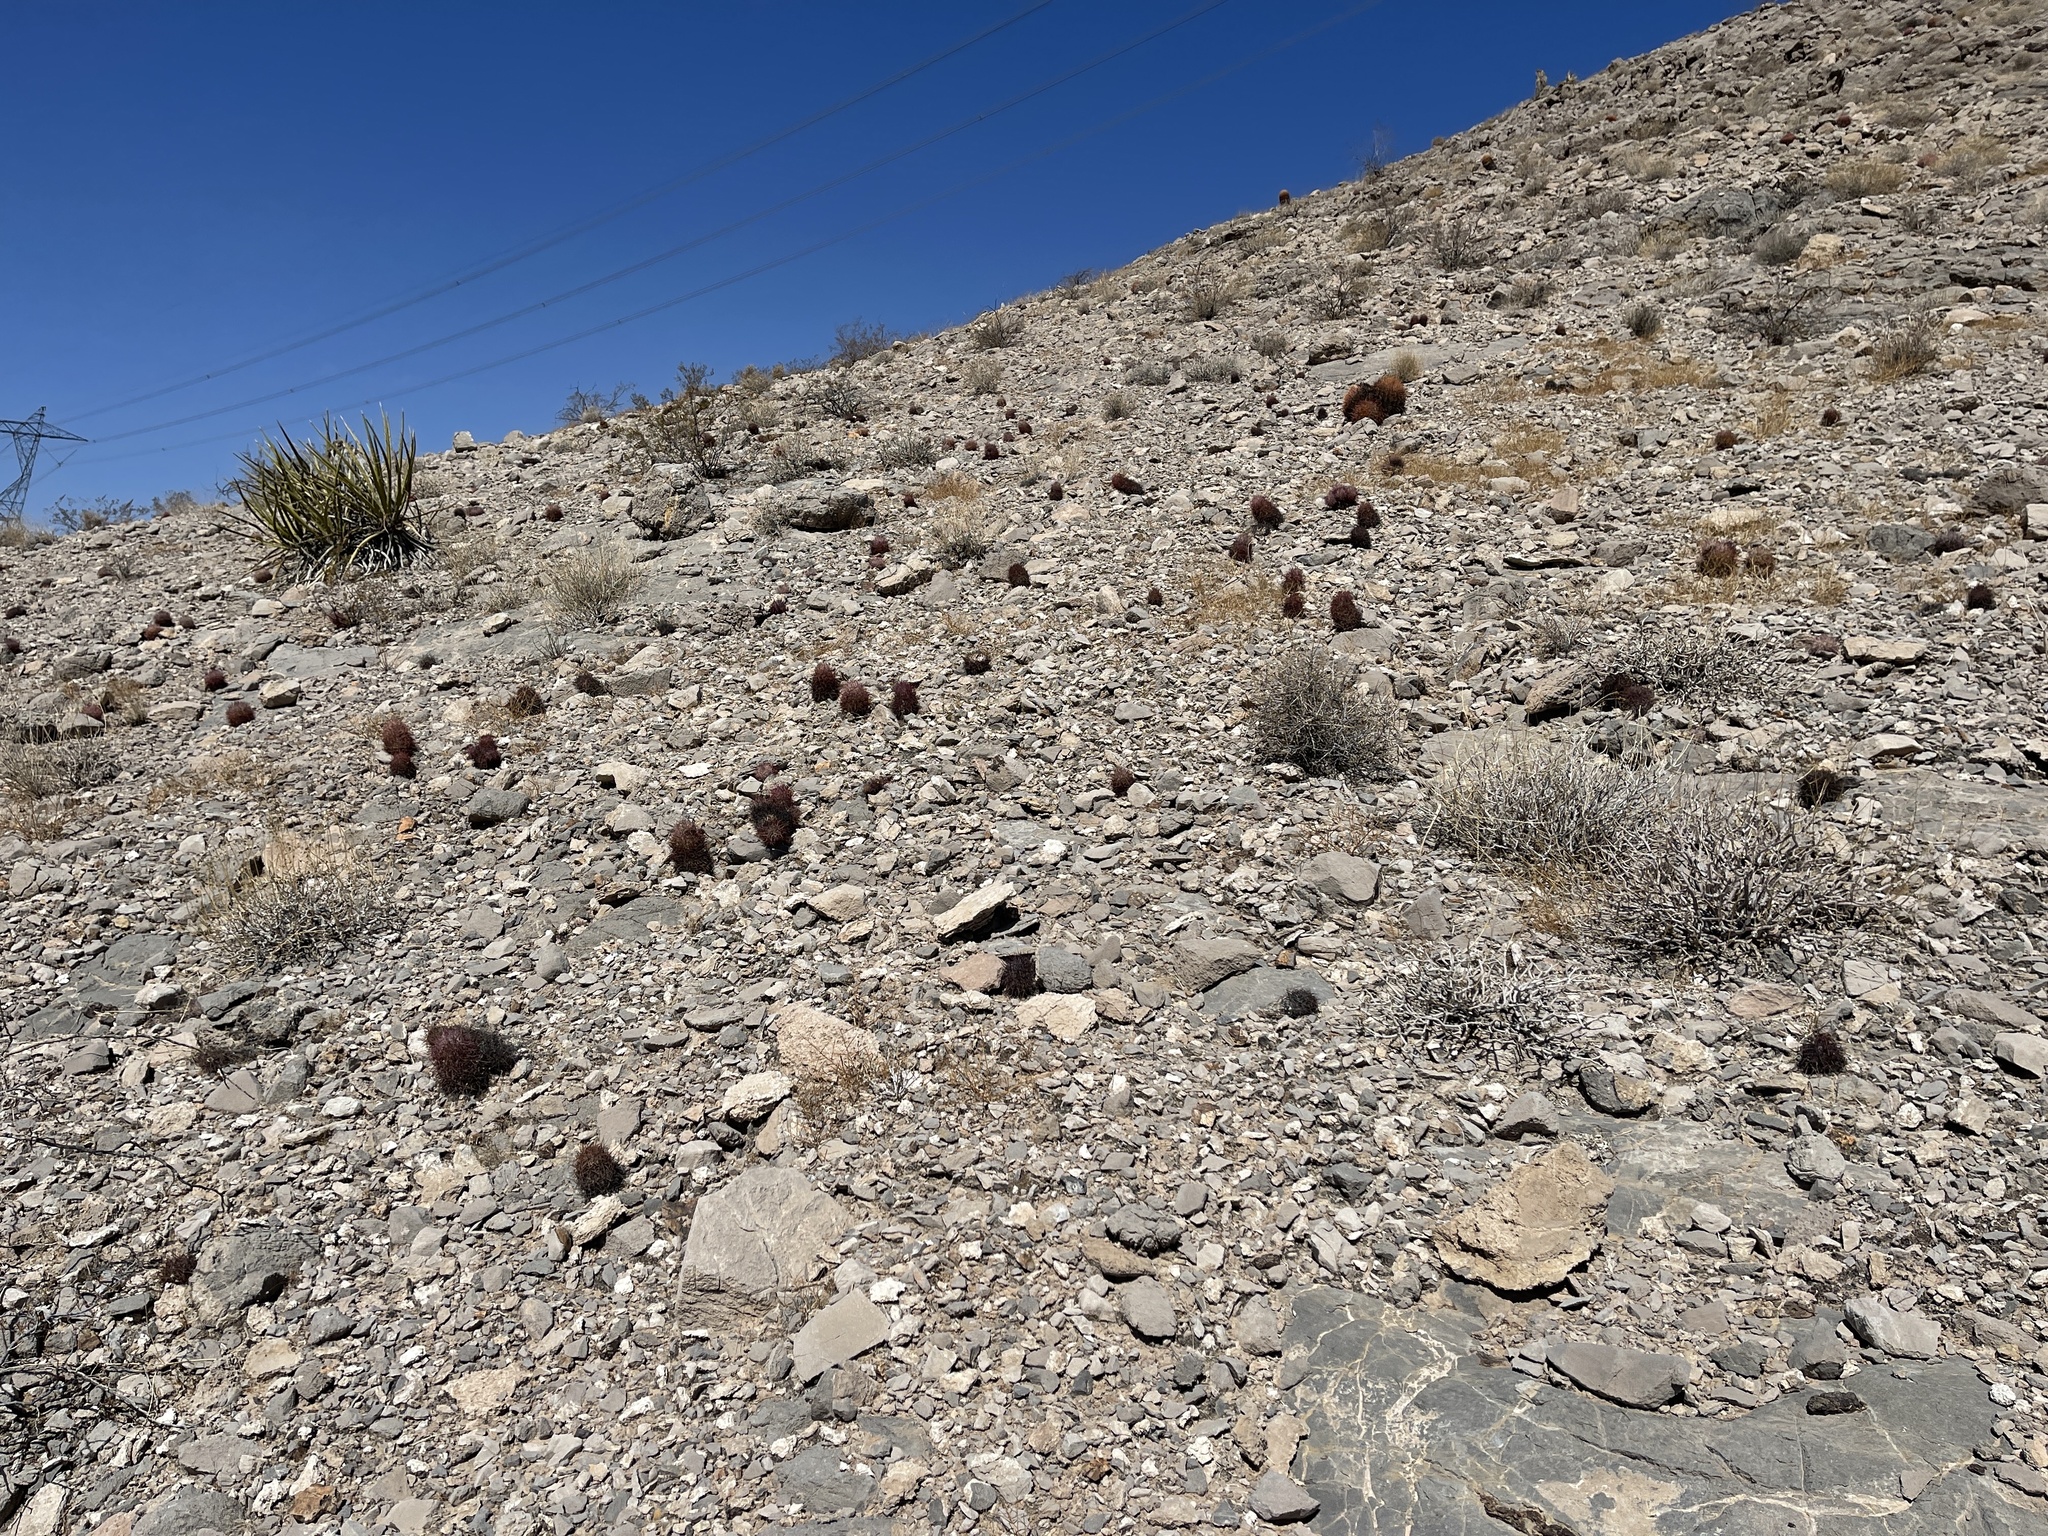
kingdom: Plantae
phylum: Tracheophyta
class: Magnoliopsida
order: Caryophyllales
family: Cactaceae
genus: Sclerocactus
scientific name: Sclerocactus johnsonii
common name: Eight-spine fishhook cactus
